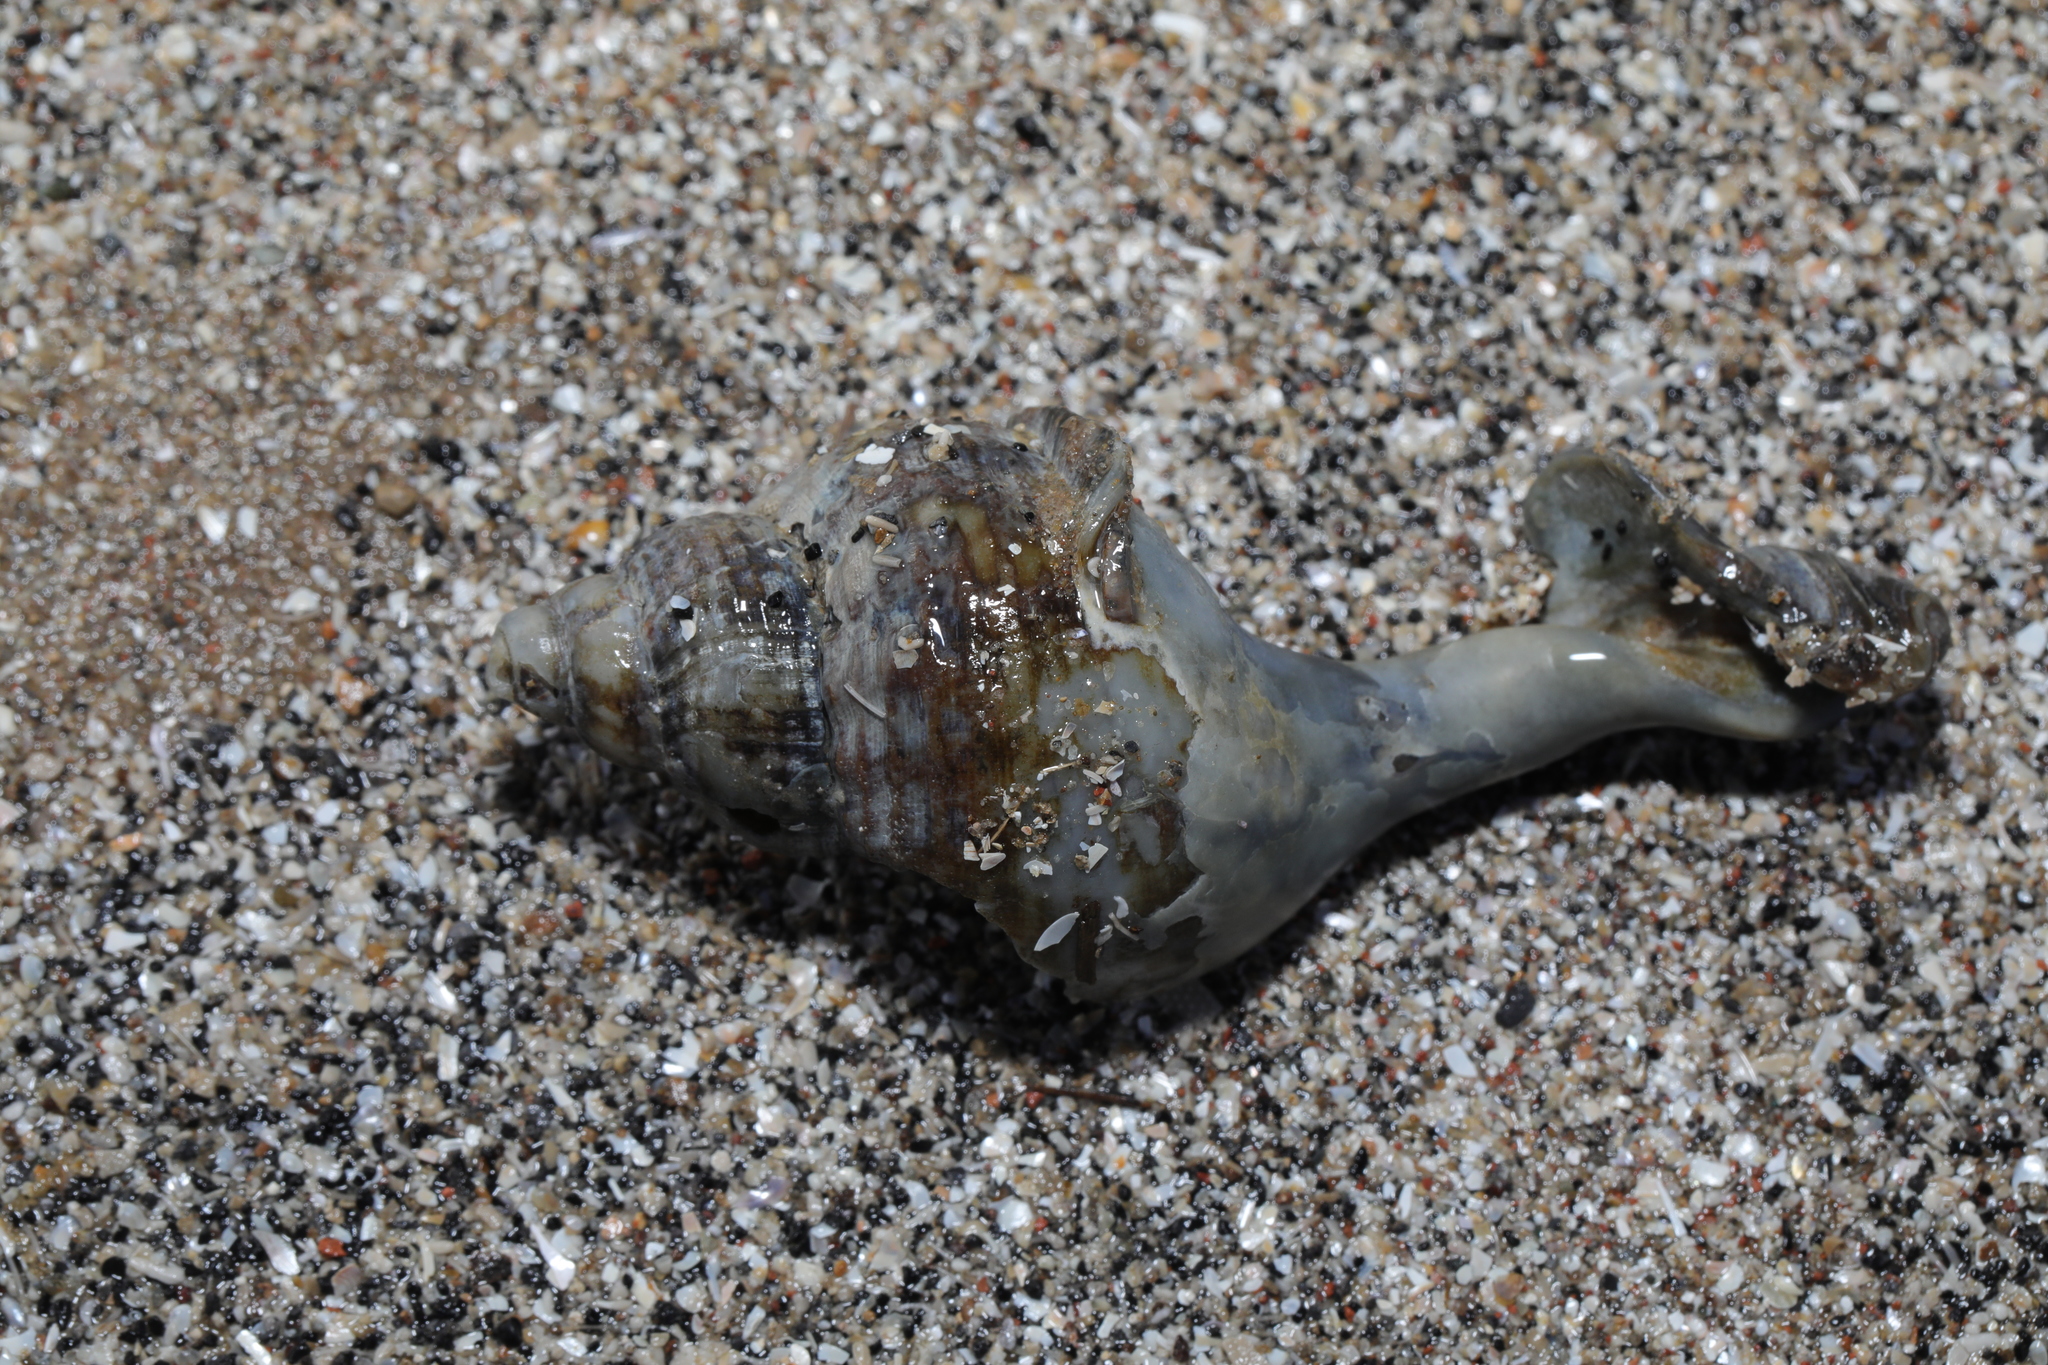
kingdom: Animalia
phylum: Mollusca
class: Gastropoda
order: Neogastropoda
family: Buccinidae
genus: Buccinum
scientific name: Buccinum undatum
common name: Common whelk
